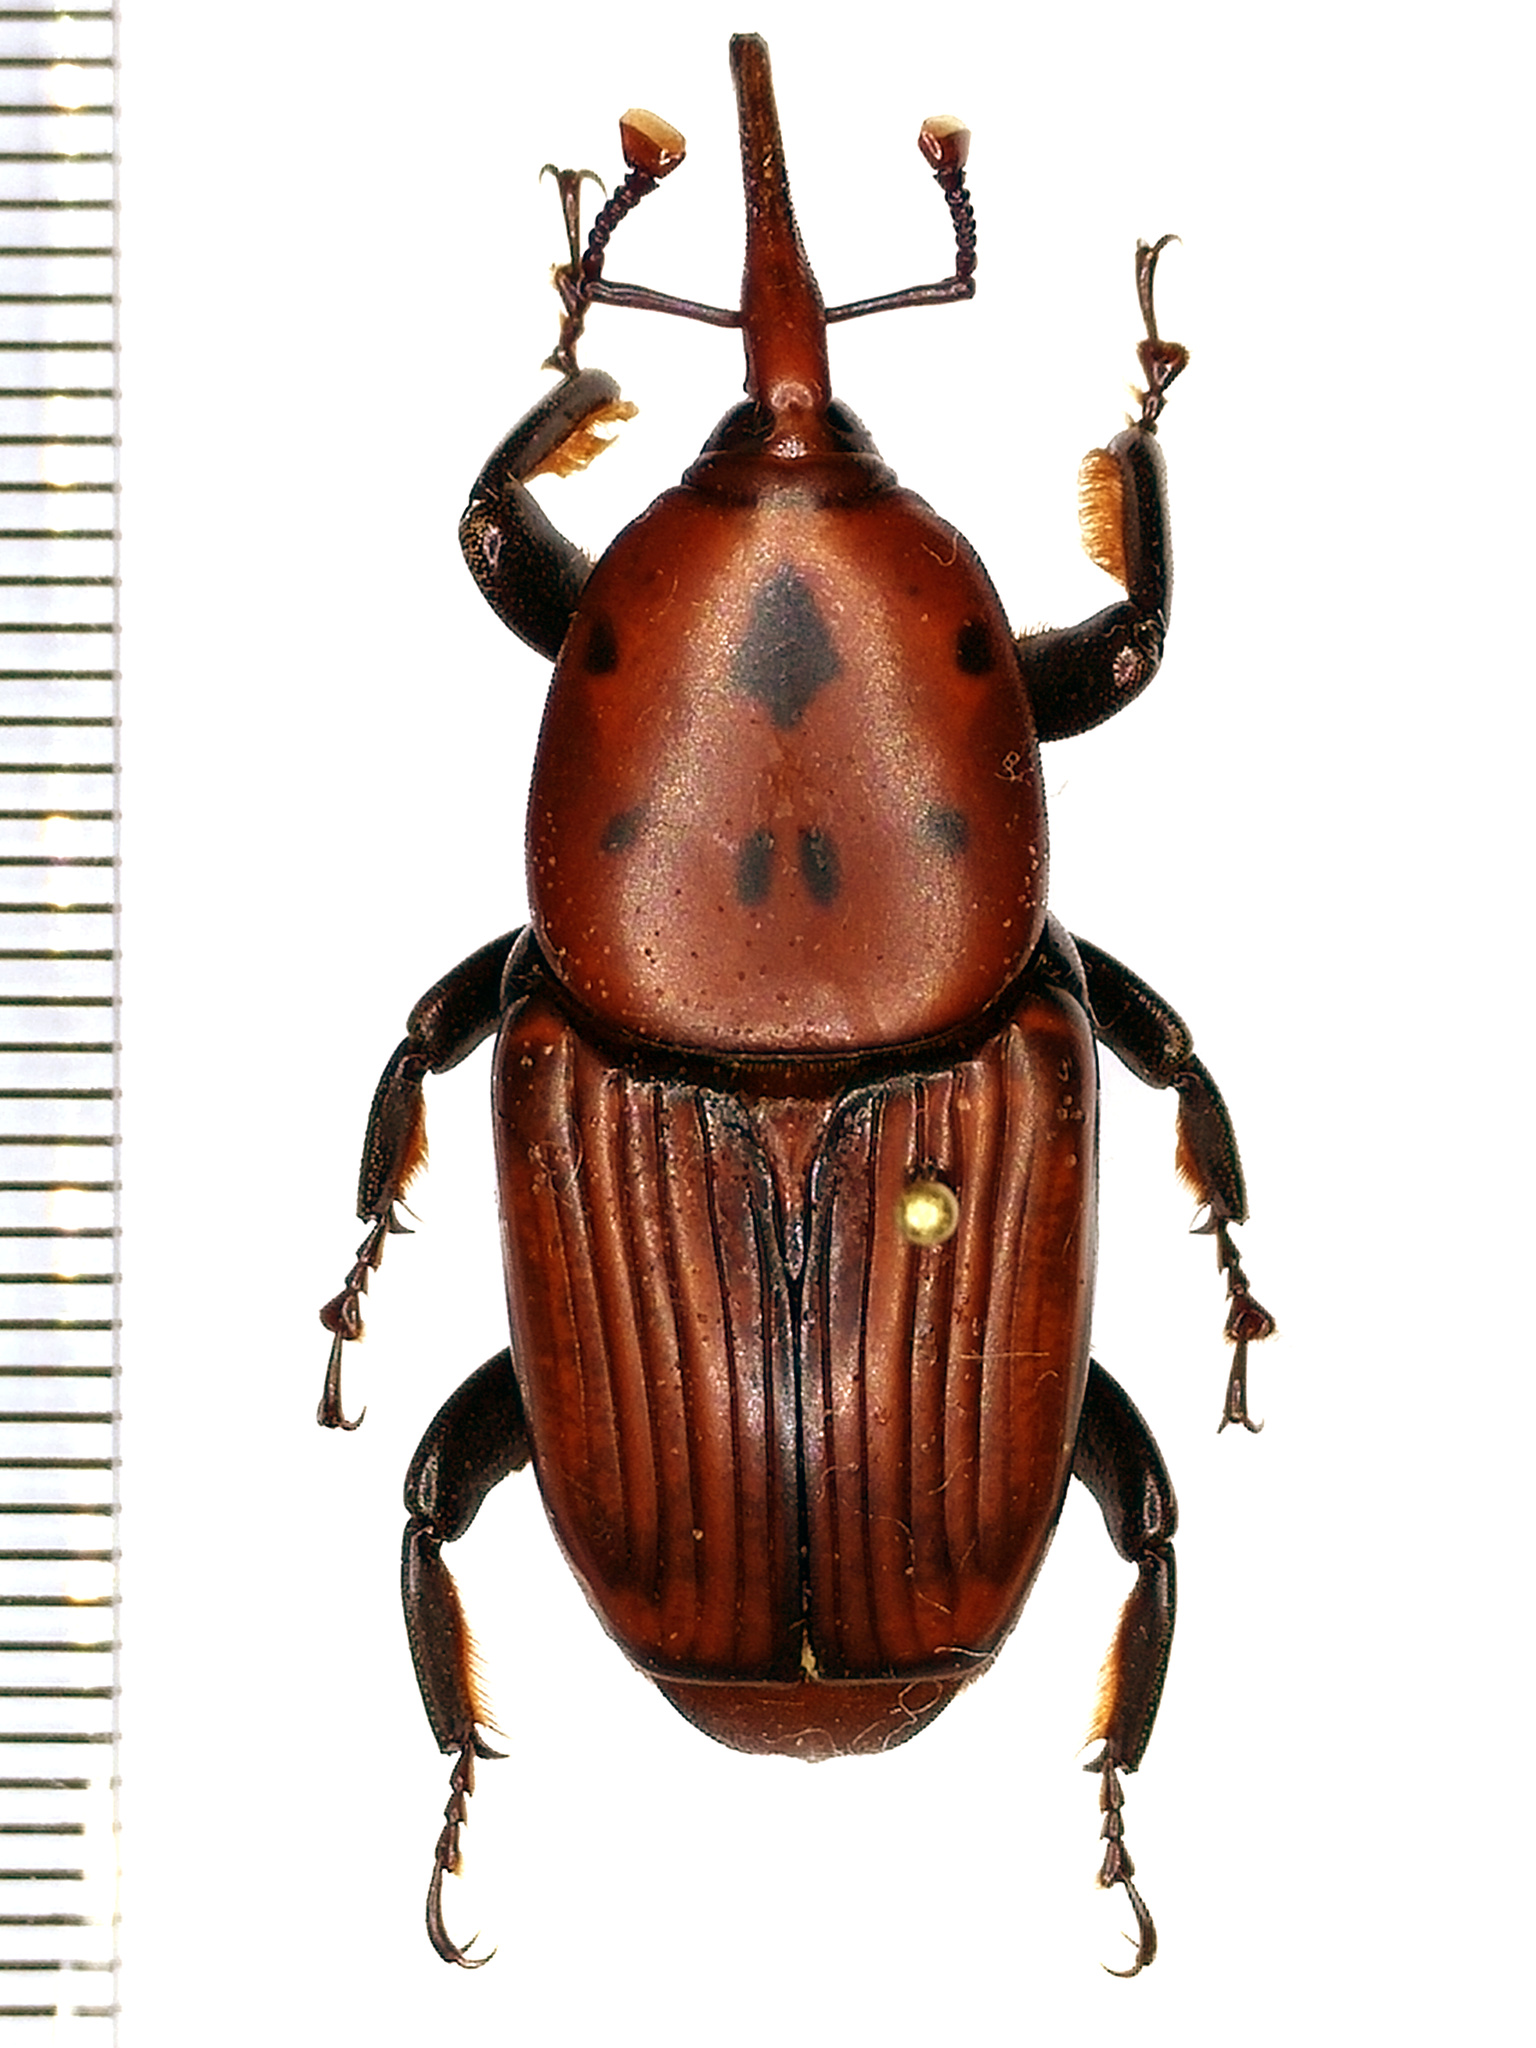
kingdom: Animalia
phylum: Arthropoda
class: Insecta
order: Coleoptera
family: Dryophthoridae
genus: Rhynchophorus
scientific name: Rhynchophorus ferrugineus
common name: Red palm weevil
